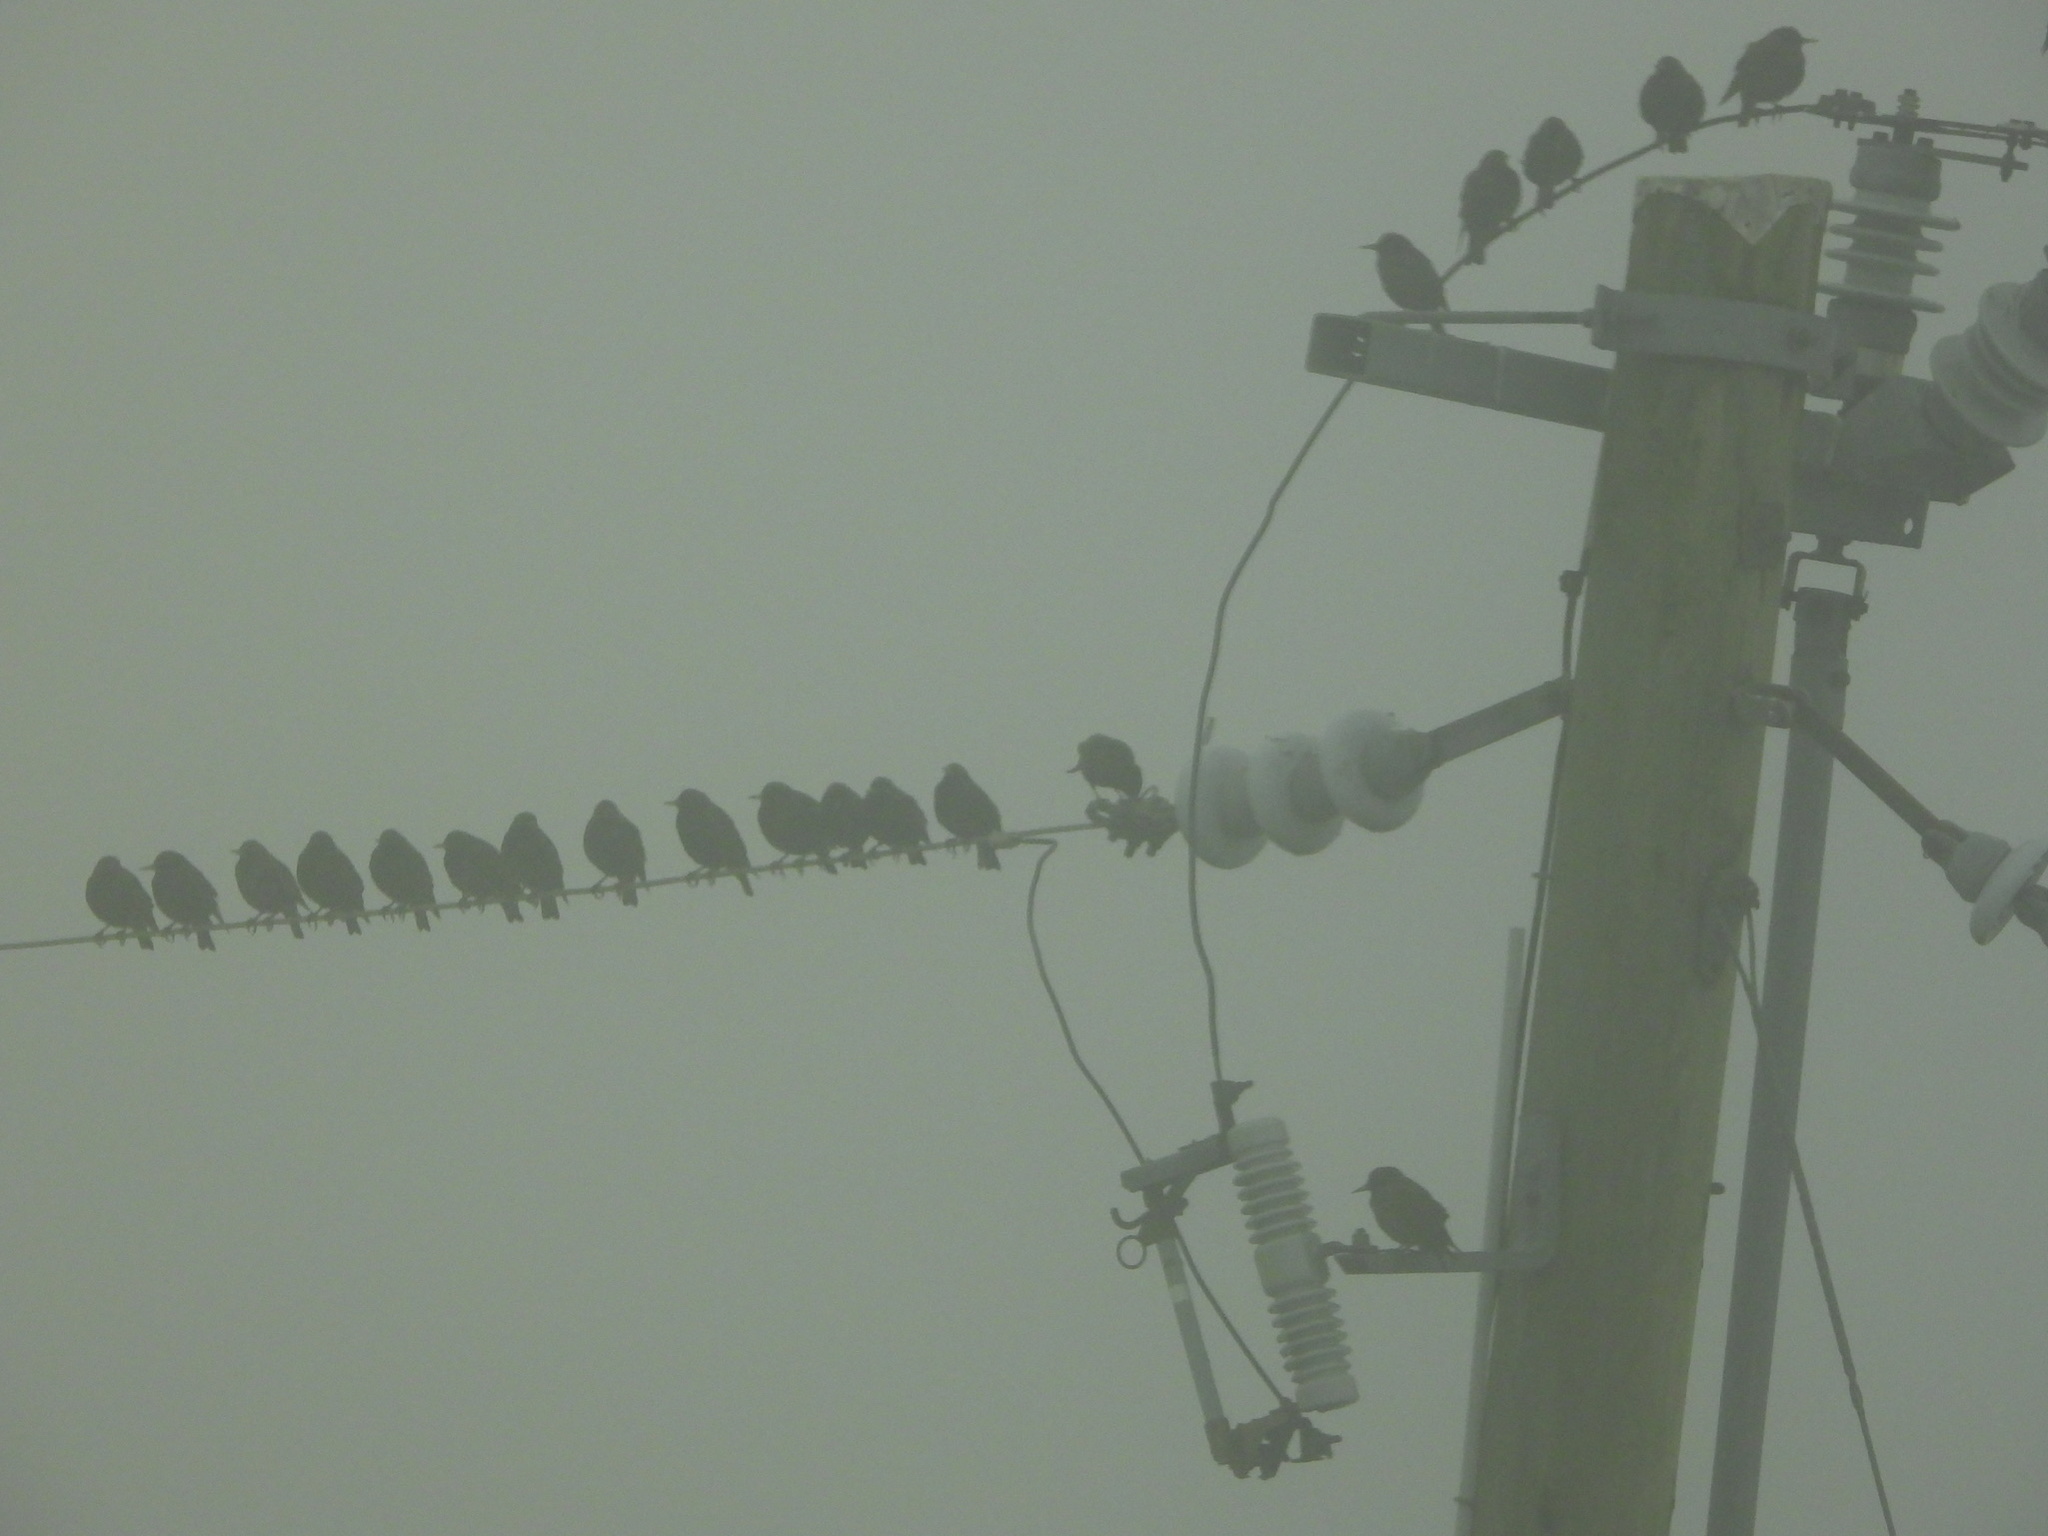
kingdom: Animalia
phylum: Chordata
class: Aves
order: Passeriformes
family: Sturnidae
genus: Sturnus
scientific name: Sturnus vulgaris
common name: Common starling
